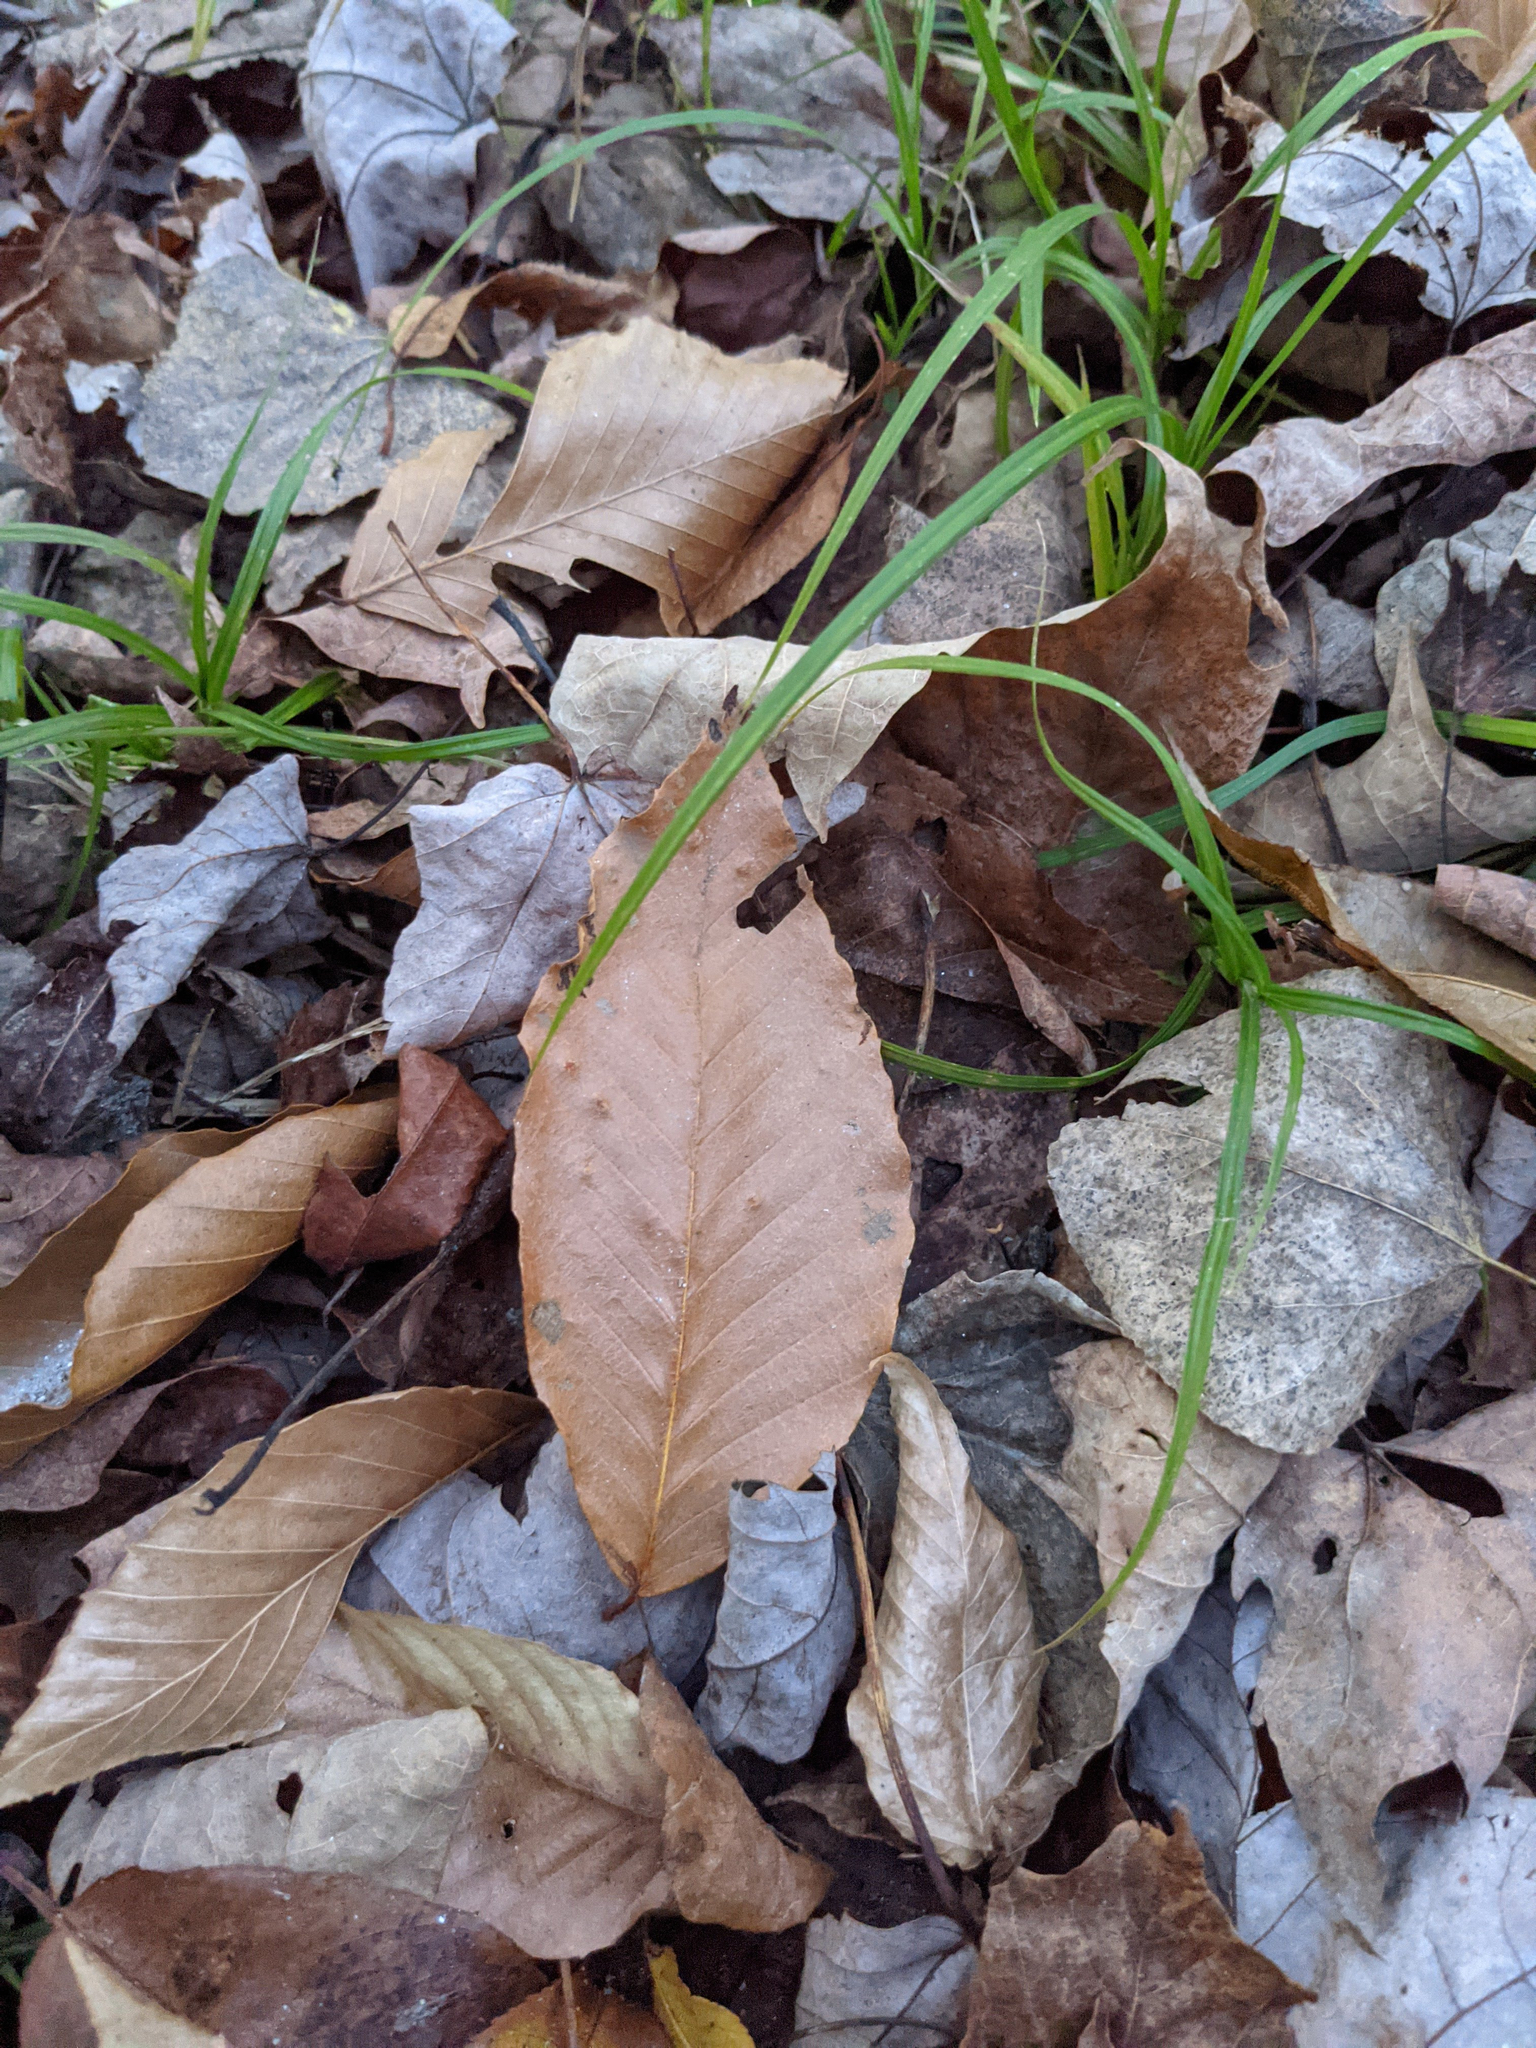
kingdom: Plantae
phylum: Tracheophyta
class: Magnoliopsida
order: Fagales
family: Fagaceae
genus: Fagus
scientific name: Fagus grandifolia
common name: American beech
